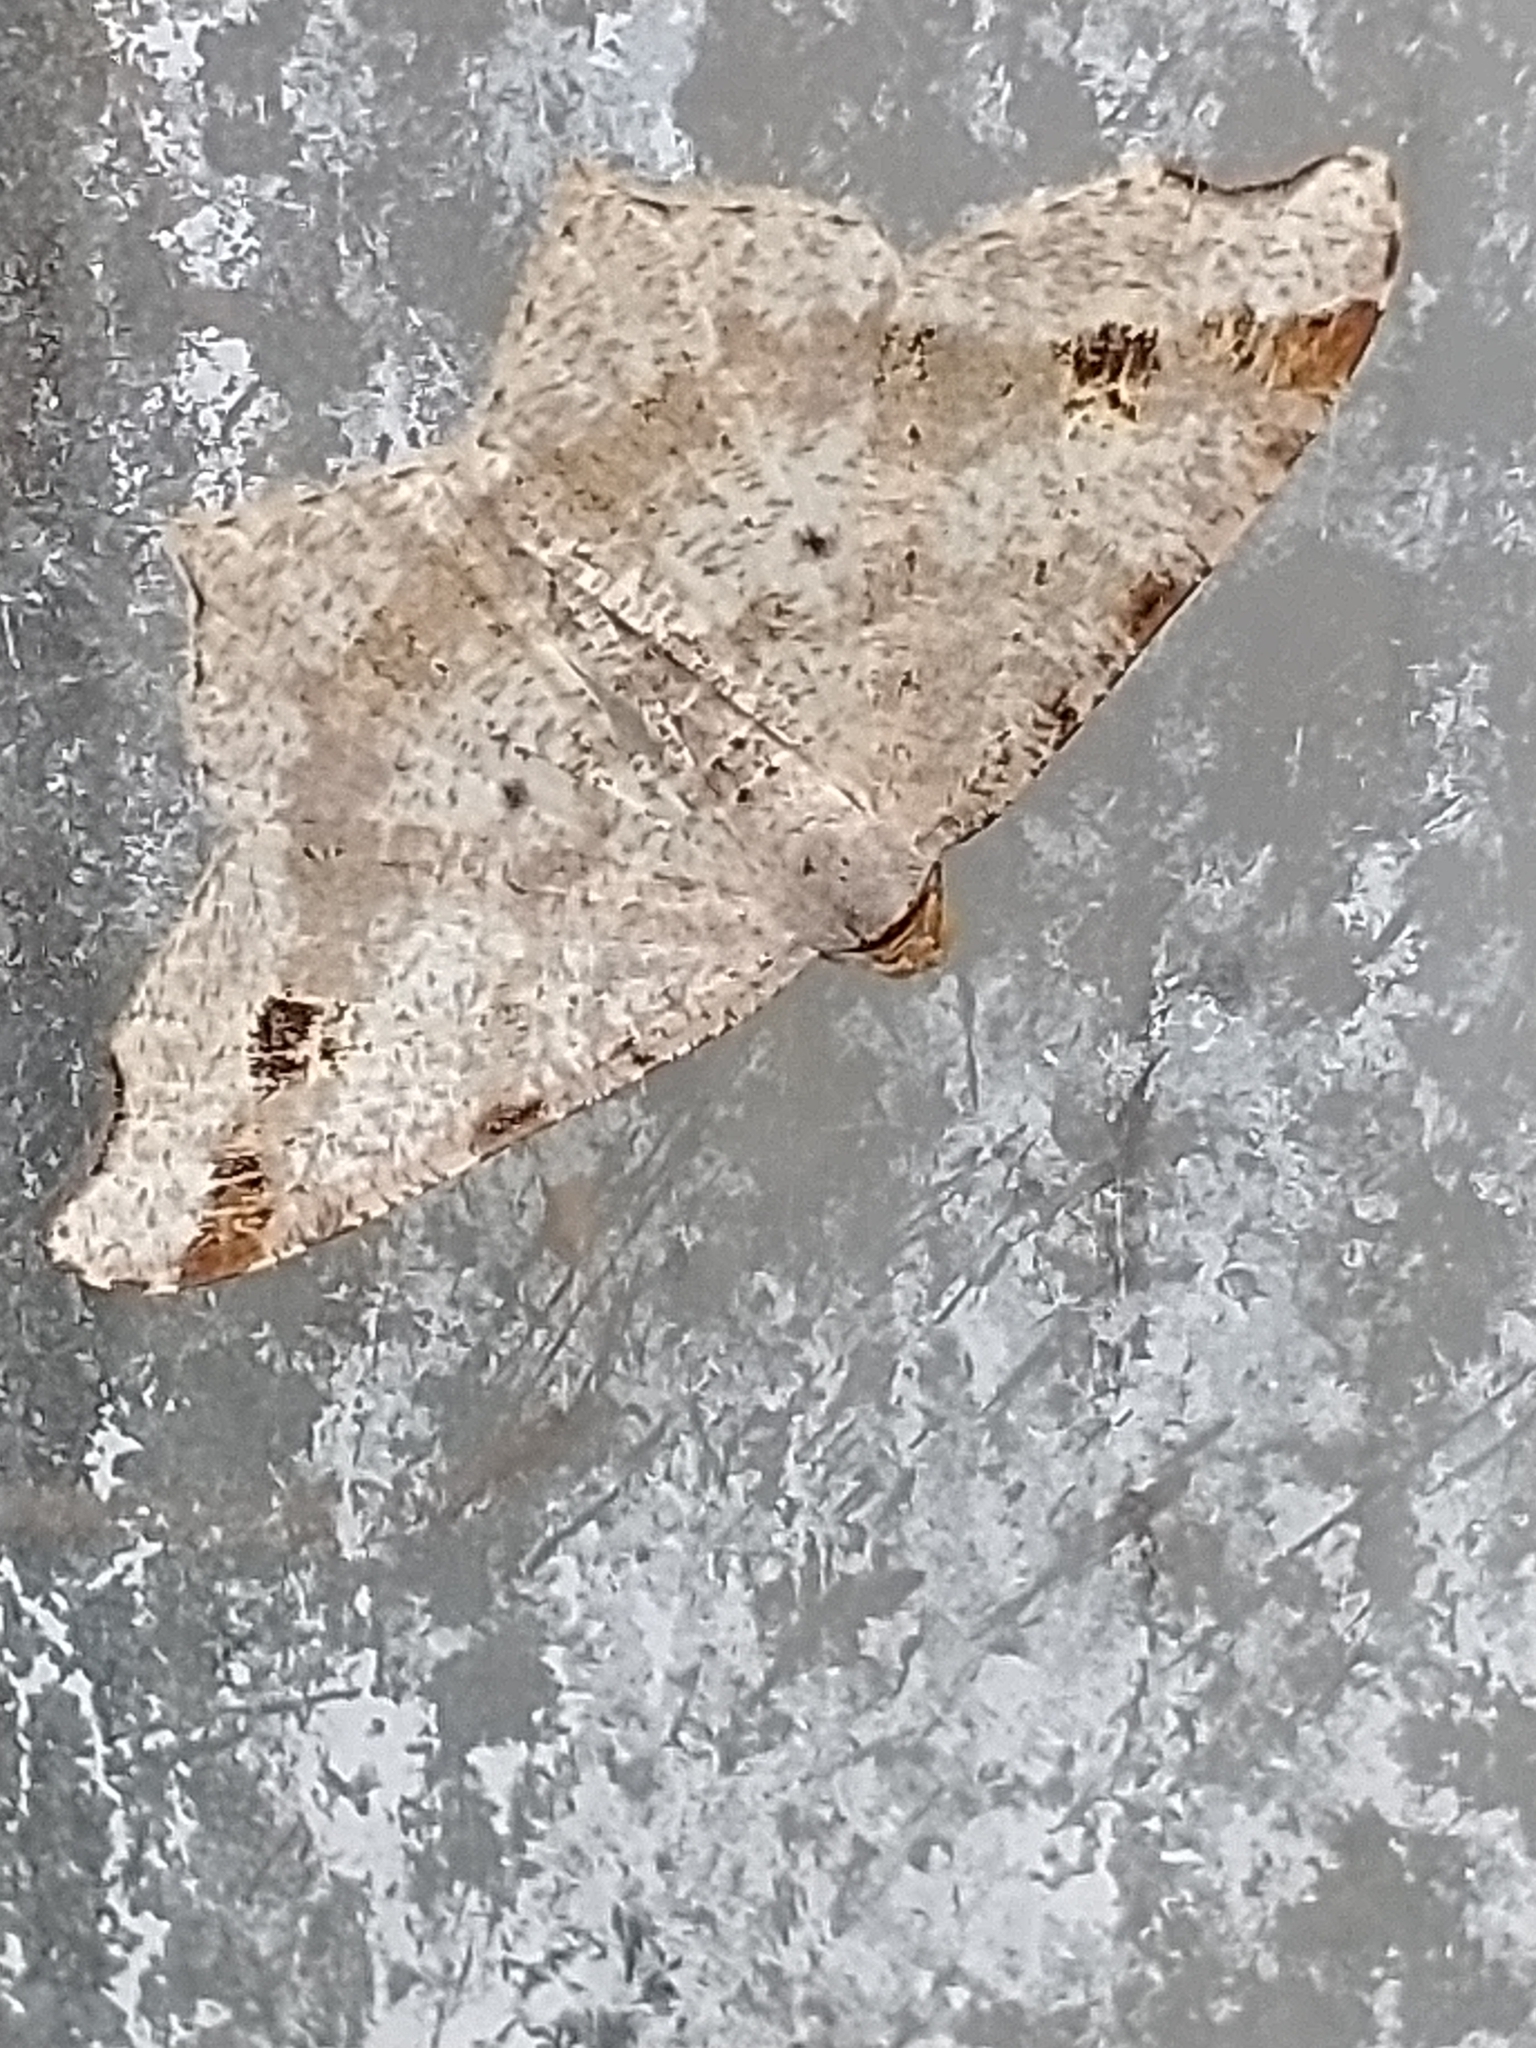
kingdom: Animalia
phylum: Arthropoda
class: Insecta
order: Lepidoptera
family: Geometridae
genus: Macaria
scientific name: Macaria alternata
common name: Sharp-angled peacock
